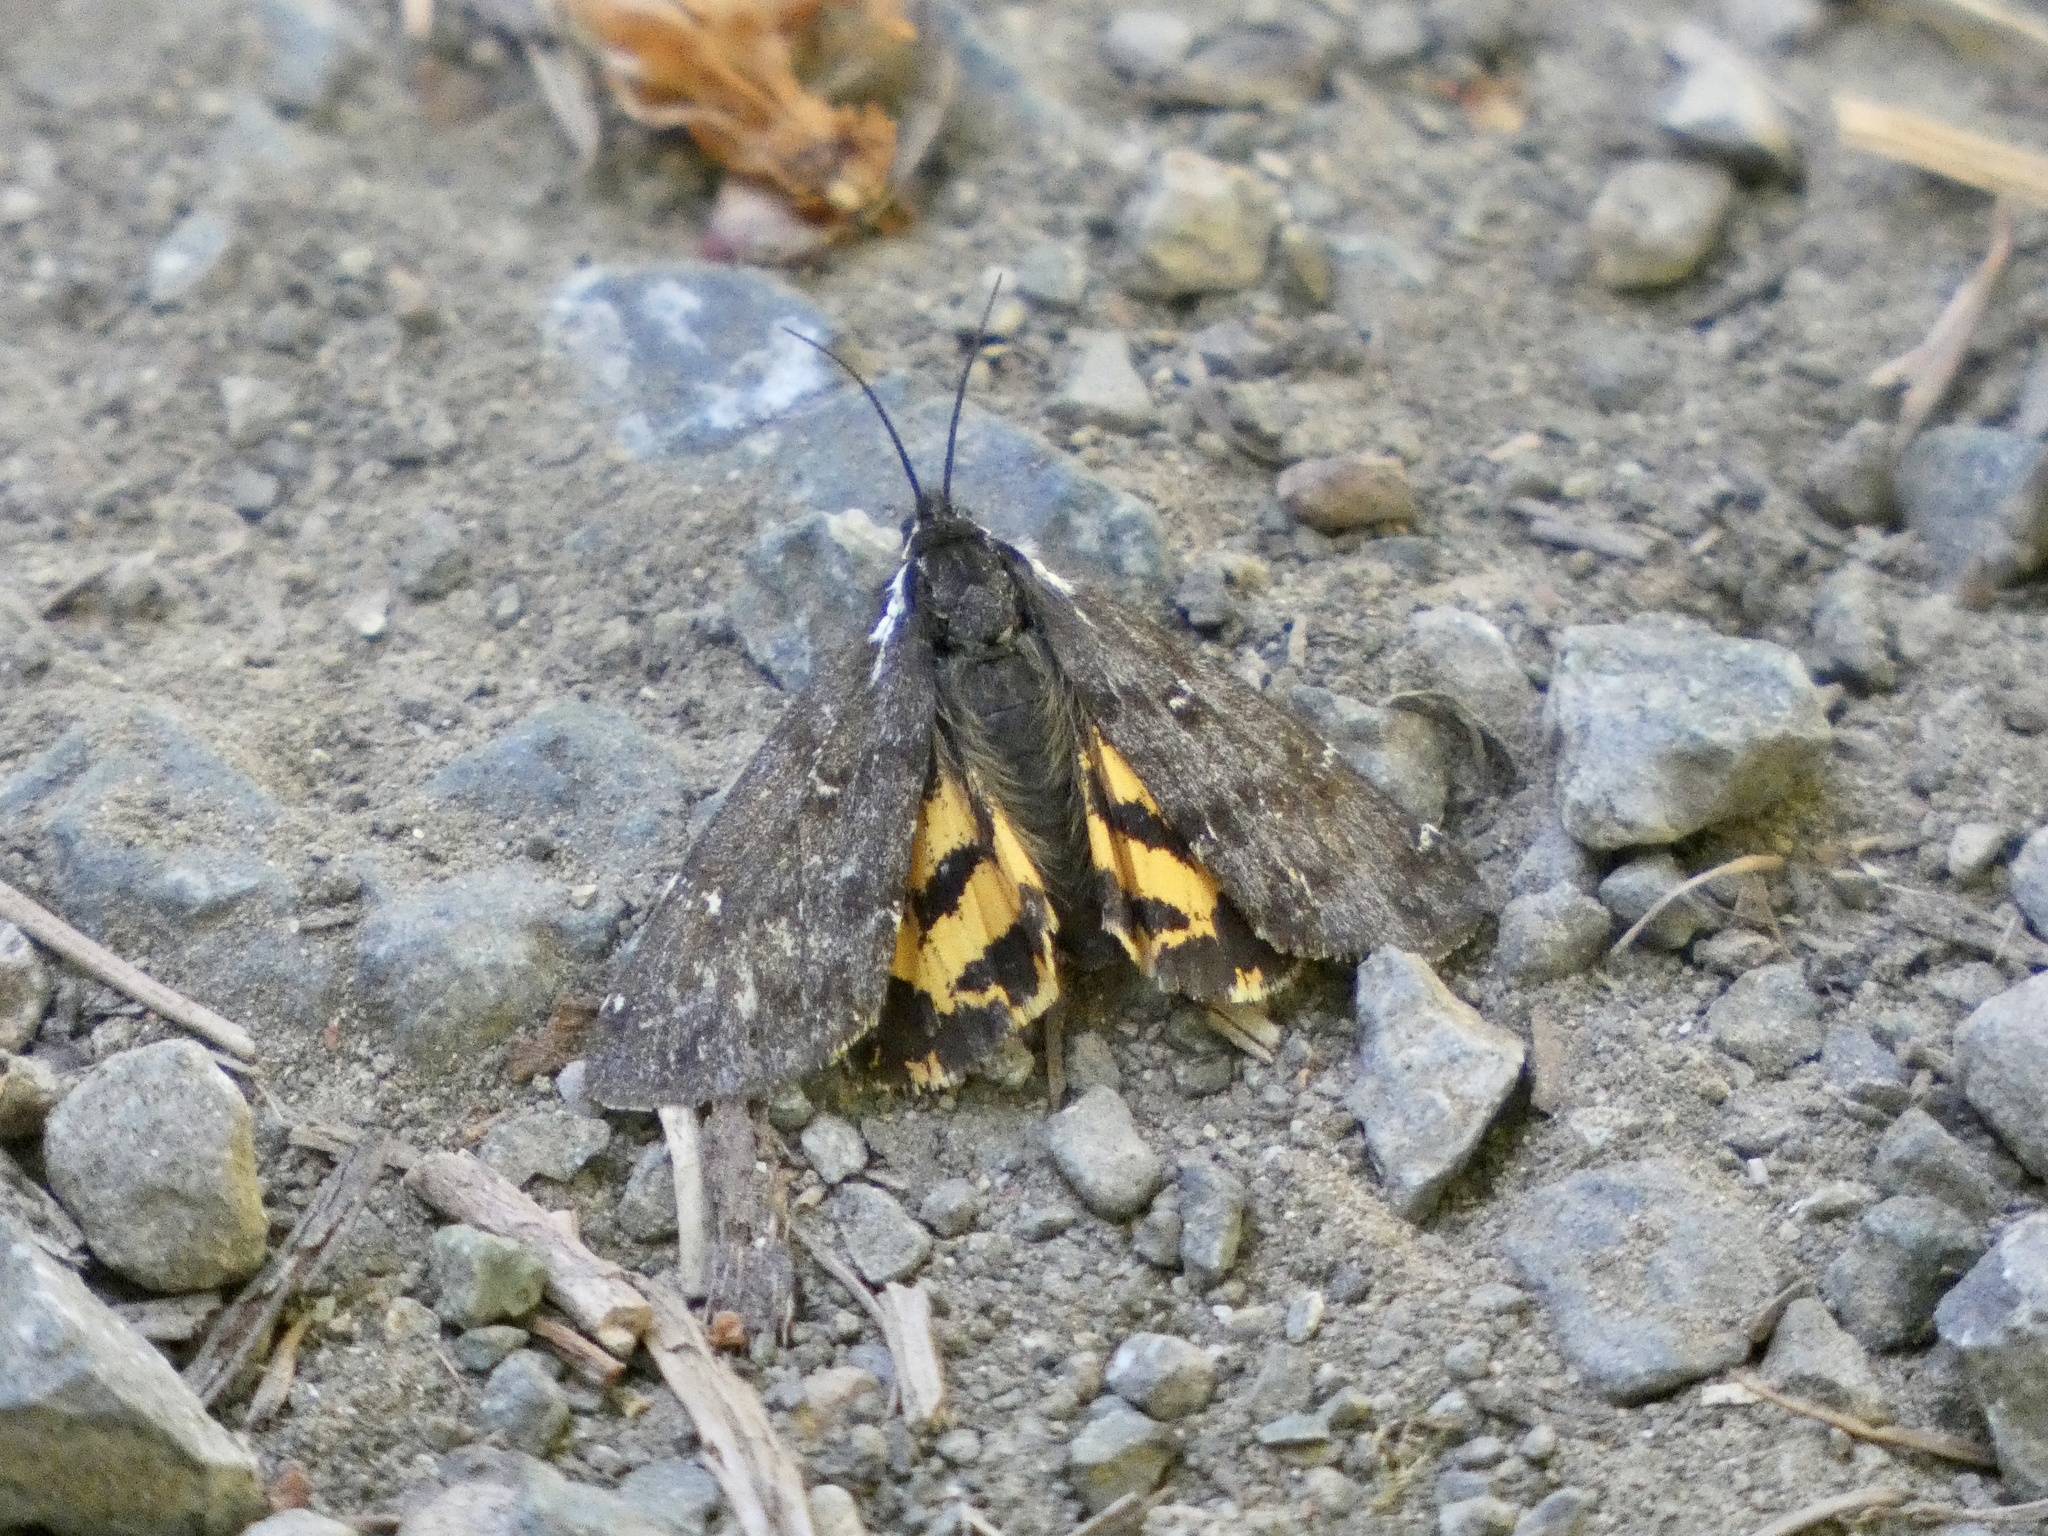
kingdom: Animalia
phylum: Arthropoda
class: Insecta
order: Lepidoptera
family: Erebidae
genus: Leptarctia
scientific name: Leptarctia californiae
